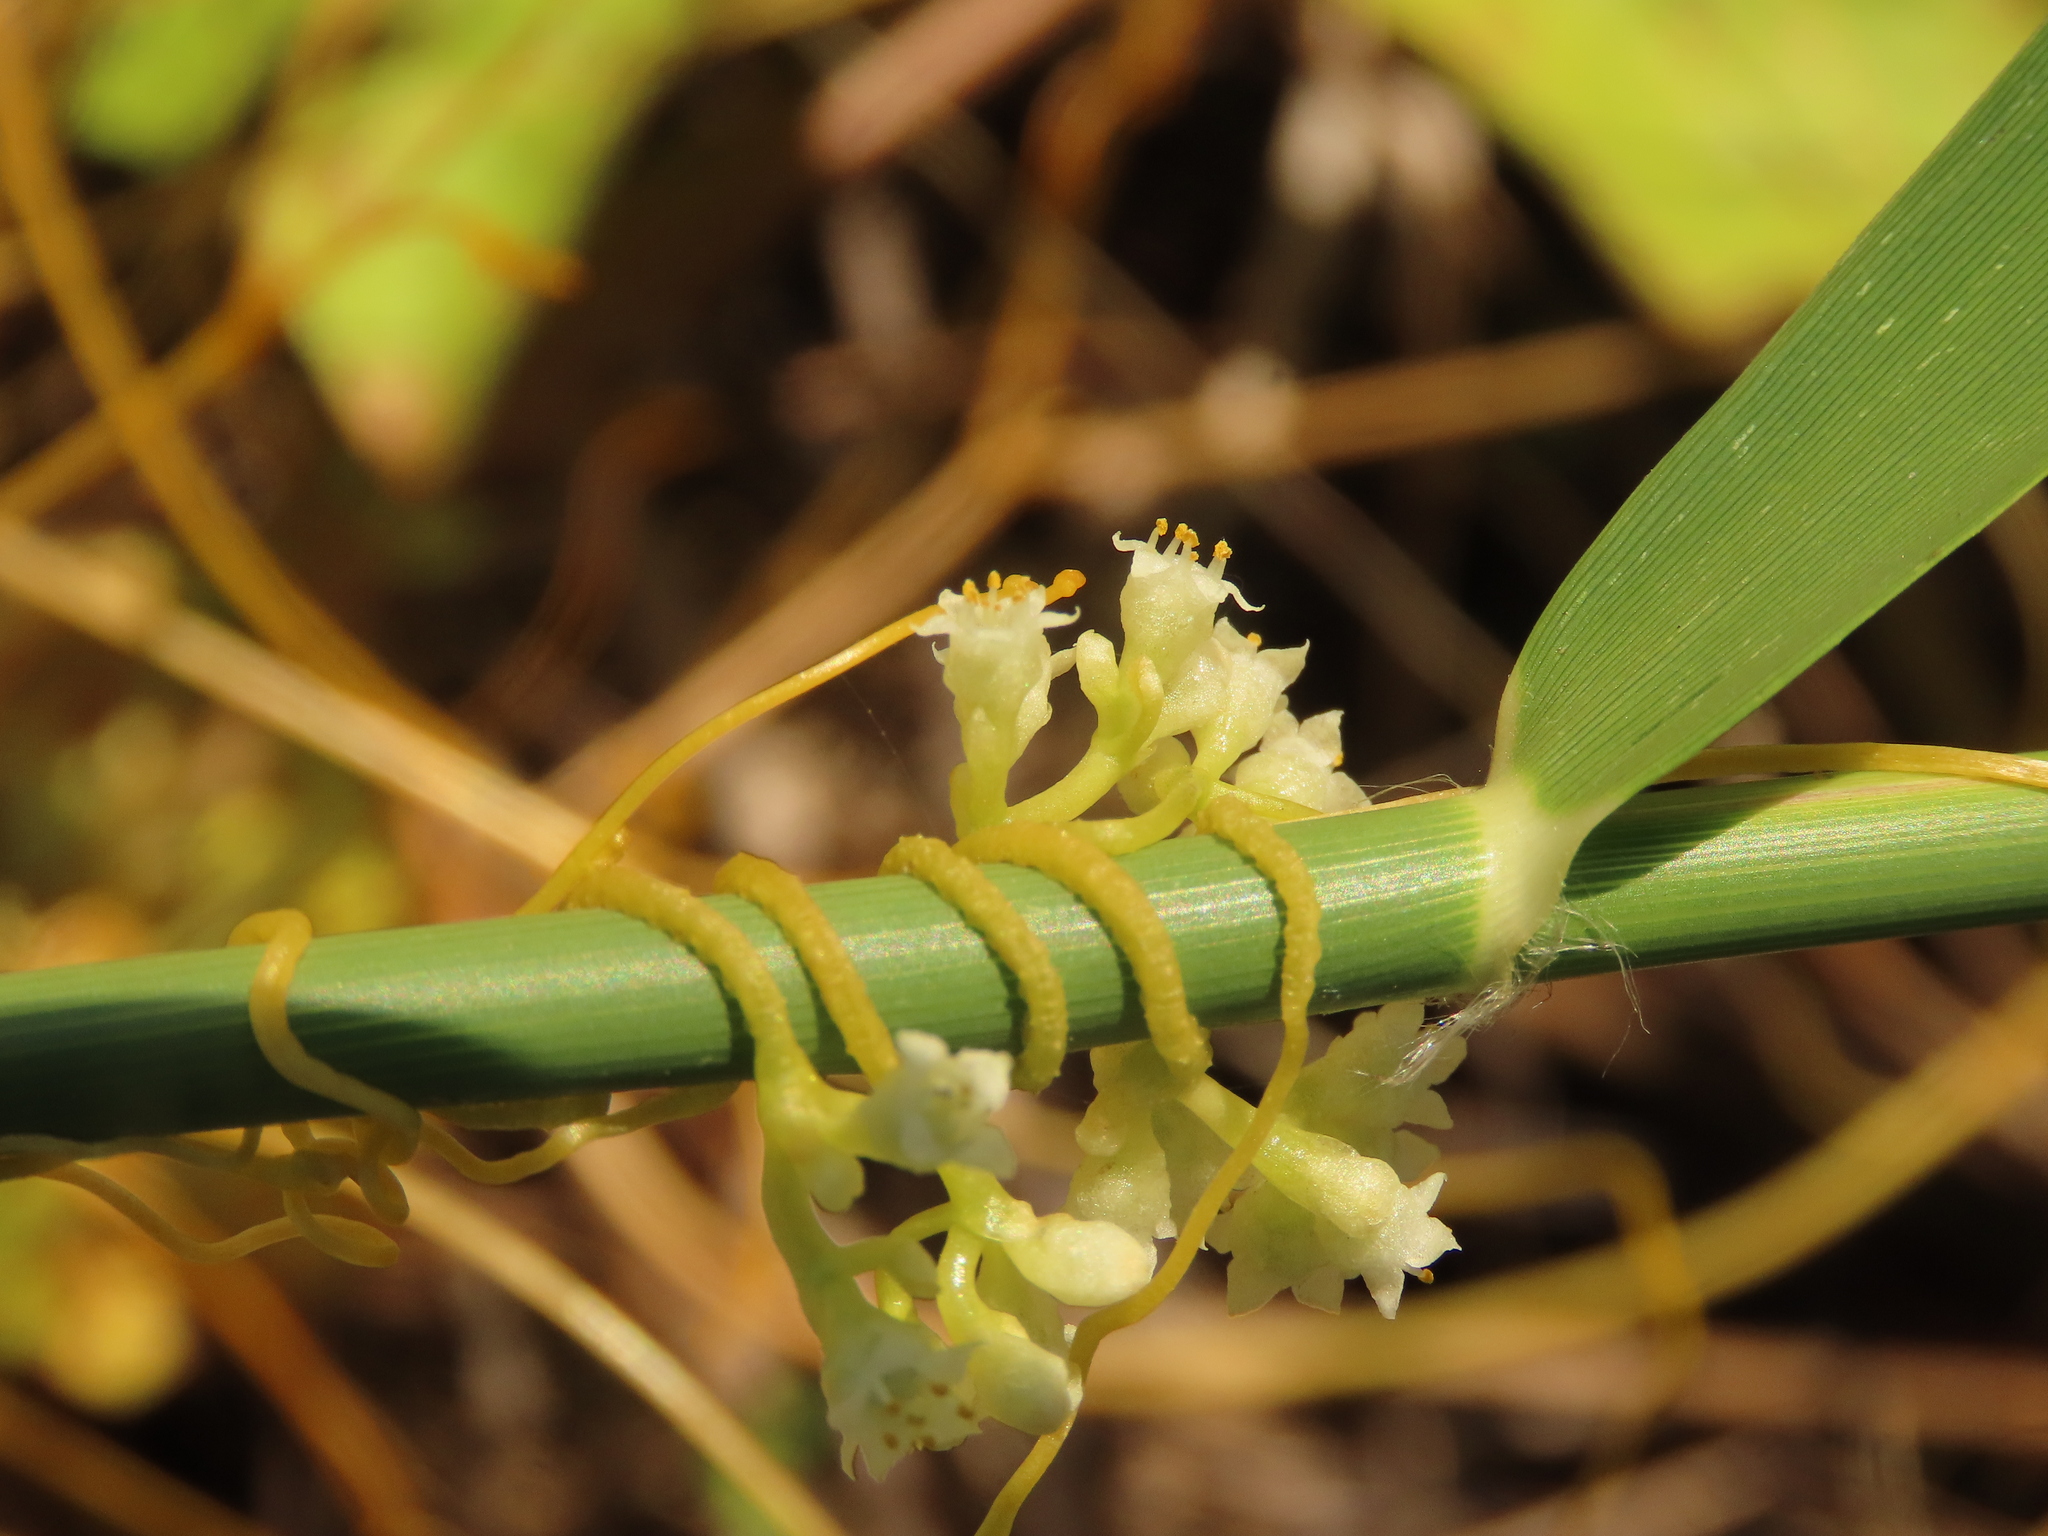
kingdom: Plantae
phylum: Tracheophyta
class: Magnoliopsida
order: Solanales
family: Convolvulaceae
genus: Cuscuta
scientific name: Cuscuta campestris
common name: Yellow dodder
